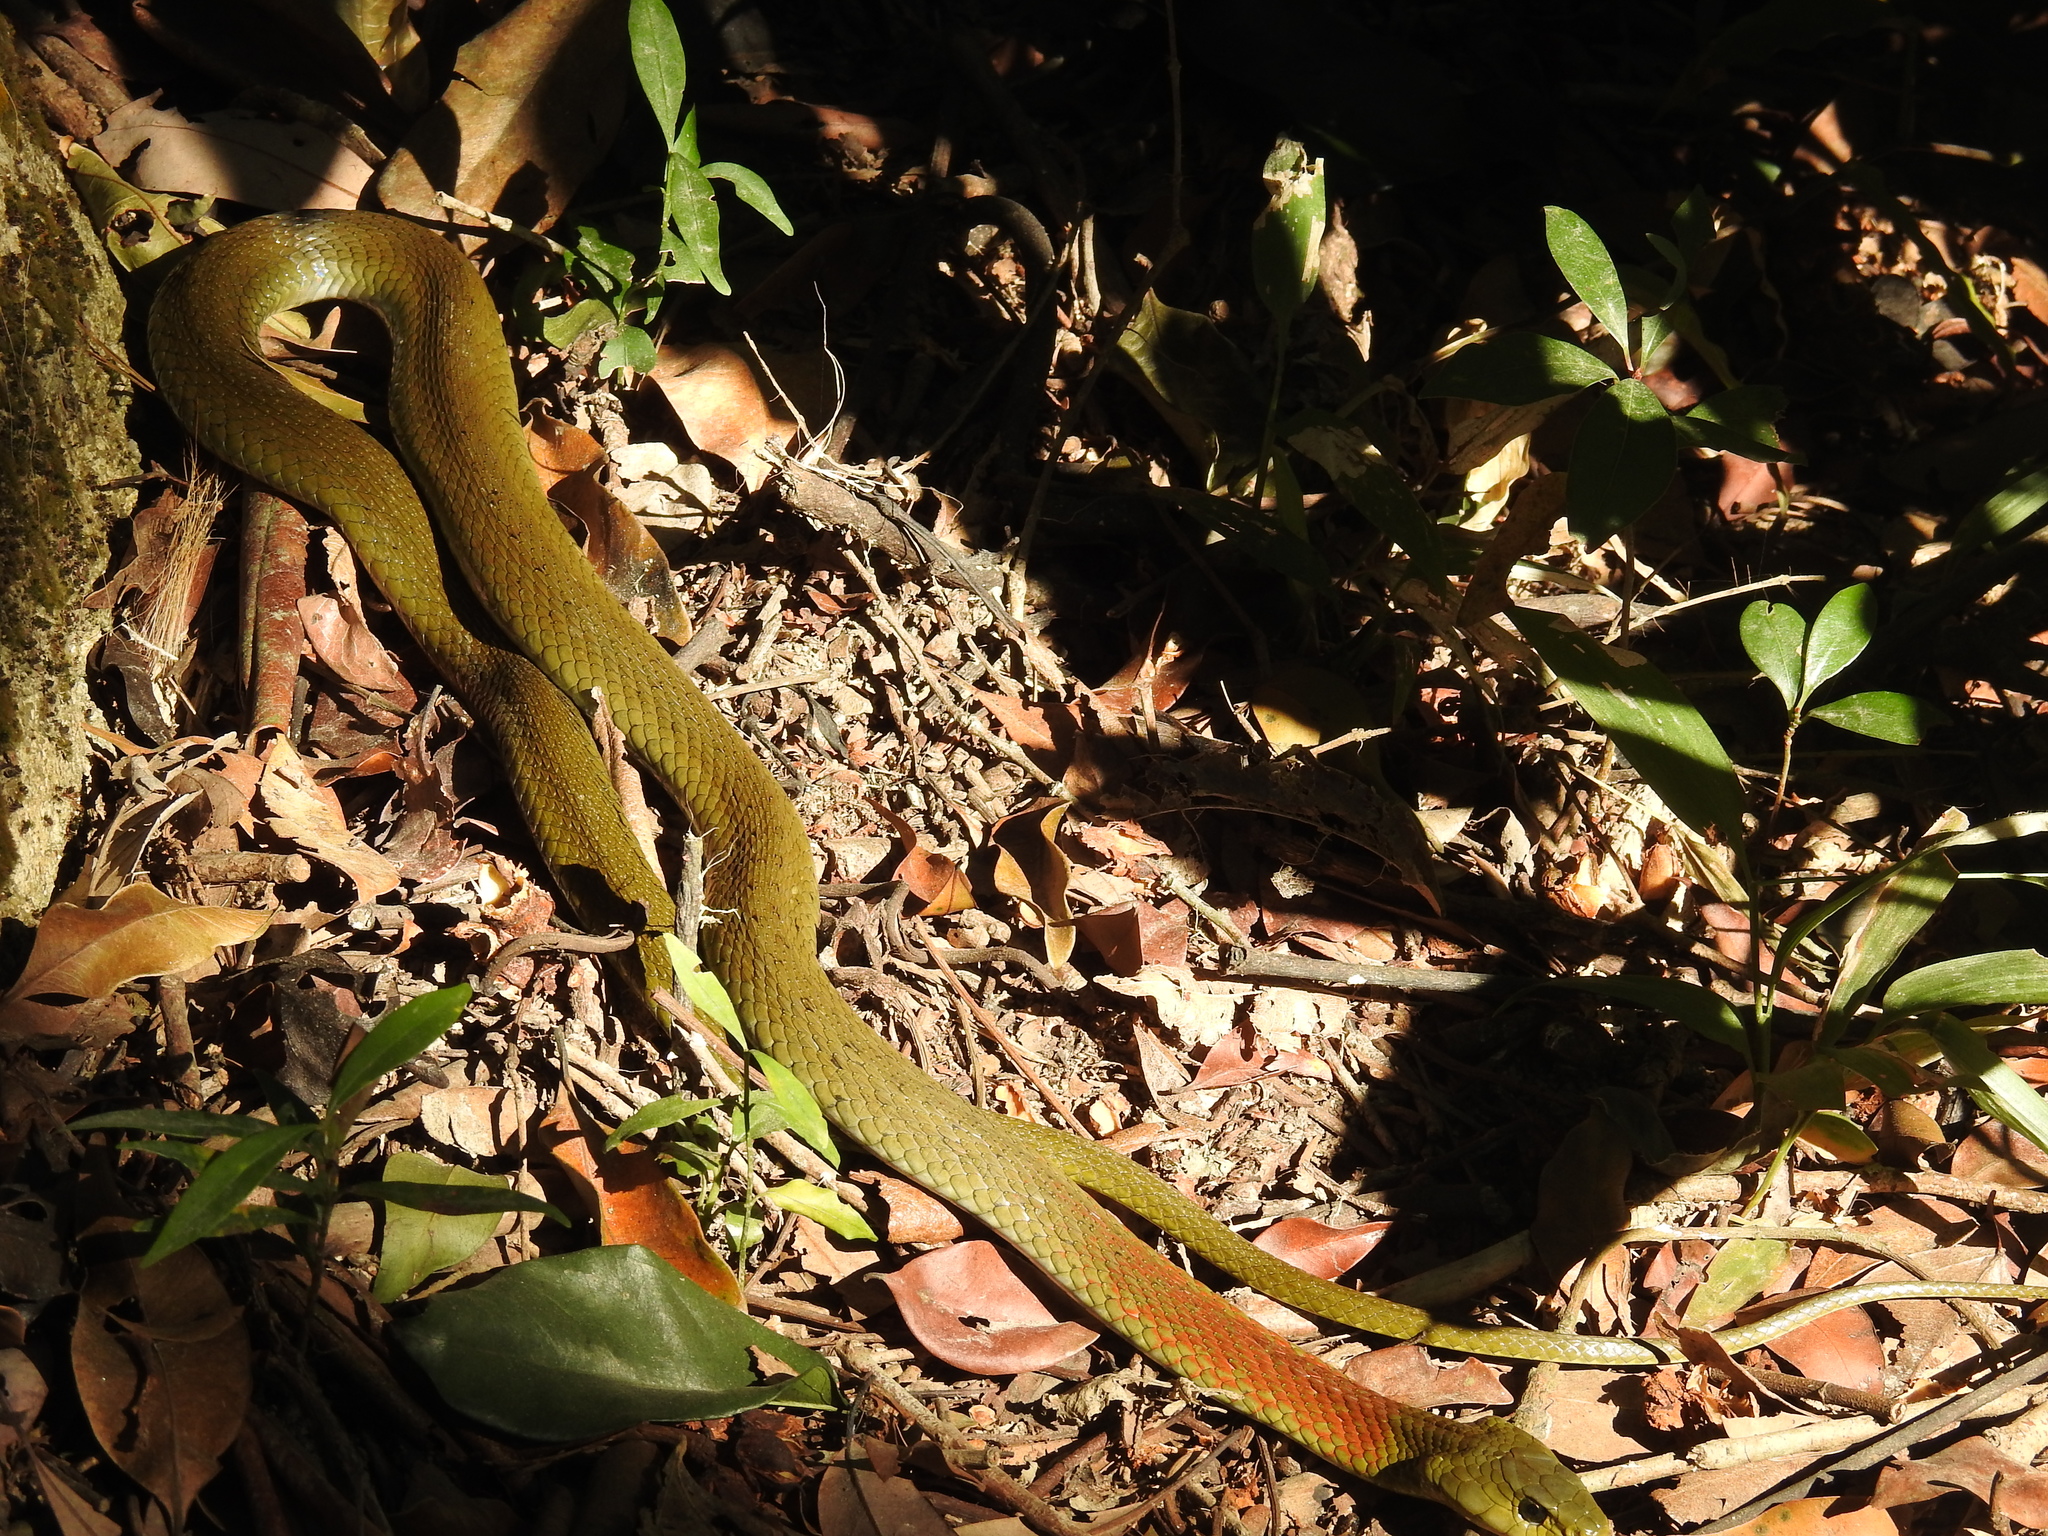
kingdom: Animalia
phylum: Chordata
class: Squamata
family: Colubridae
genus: Rhabdophis
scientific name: Rhabdophis helleri
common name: Heller’s red-necked keelback
